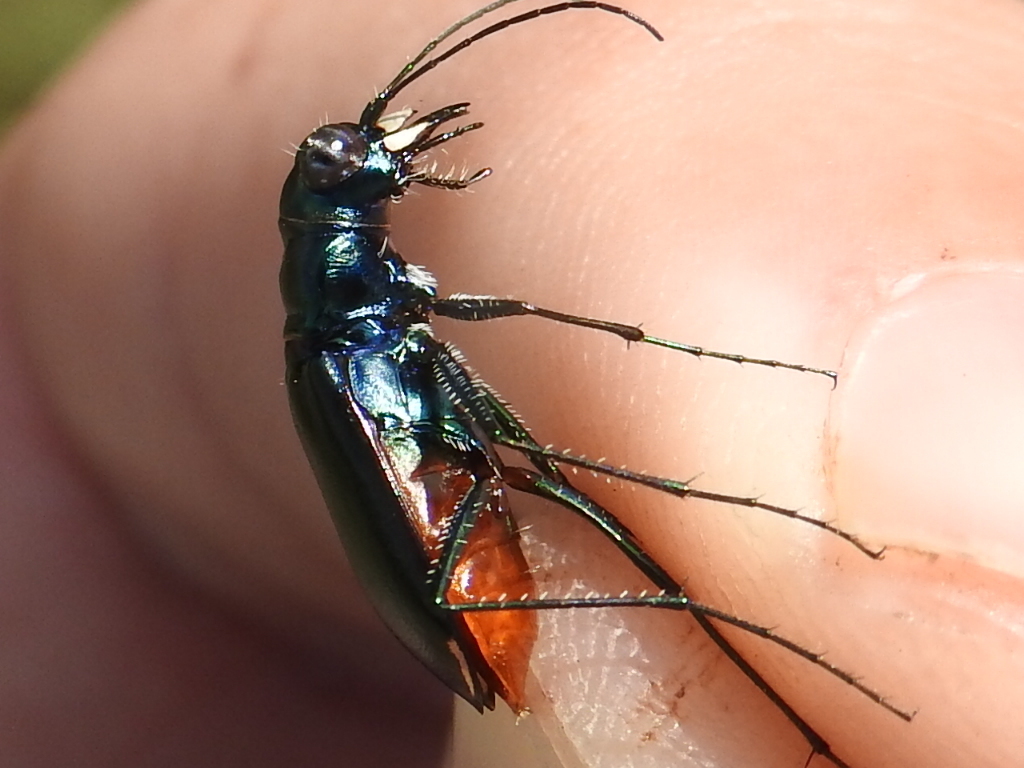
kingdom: Animalia
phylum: Arthropoda
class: Insecta
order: Coleoptera
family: Carabidae
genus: Cicindela
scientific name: Cicindela politula
